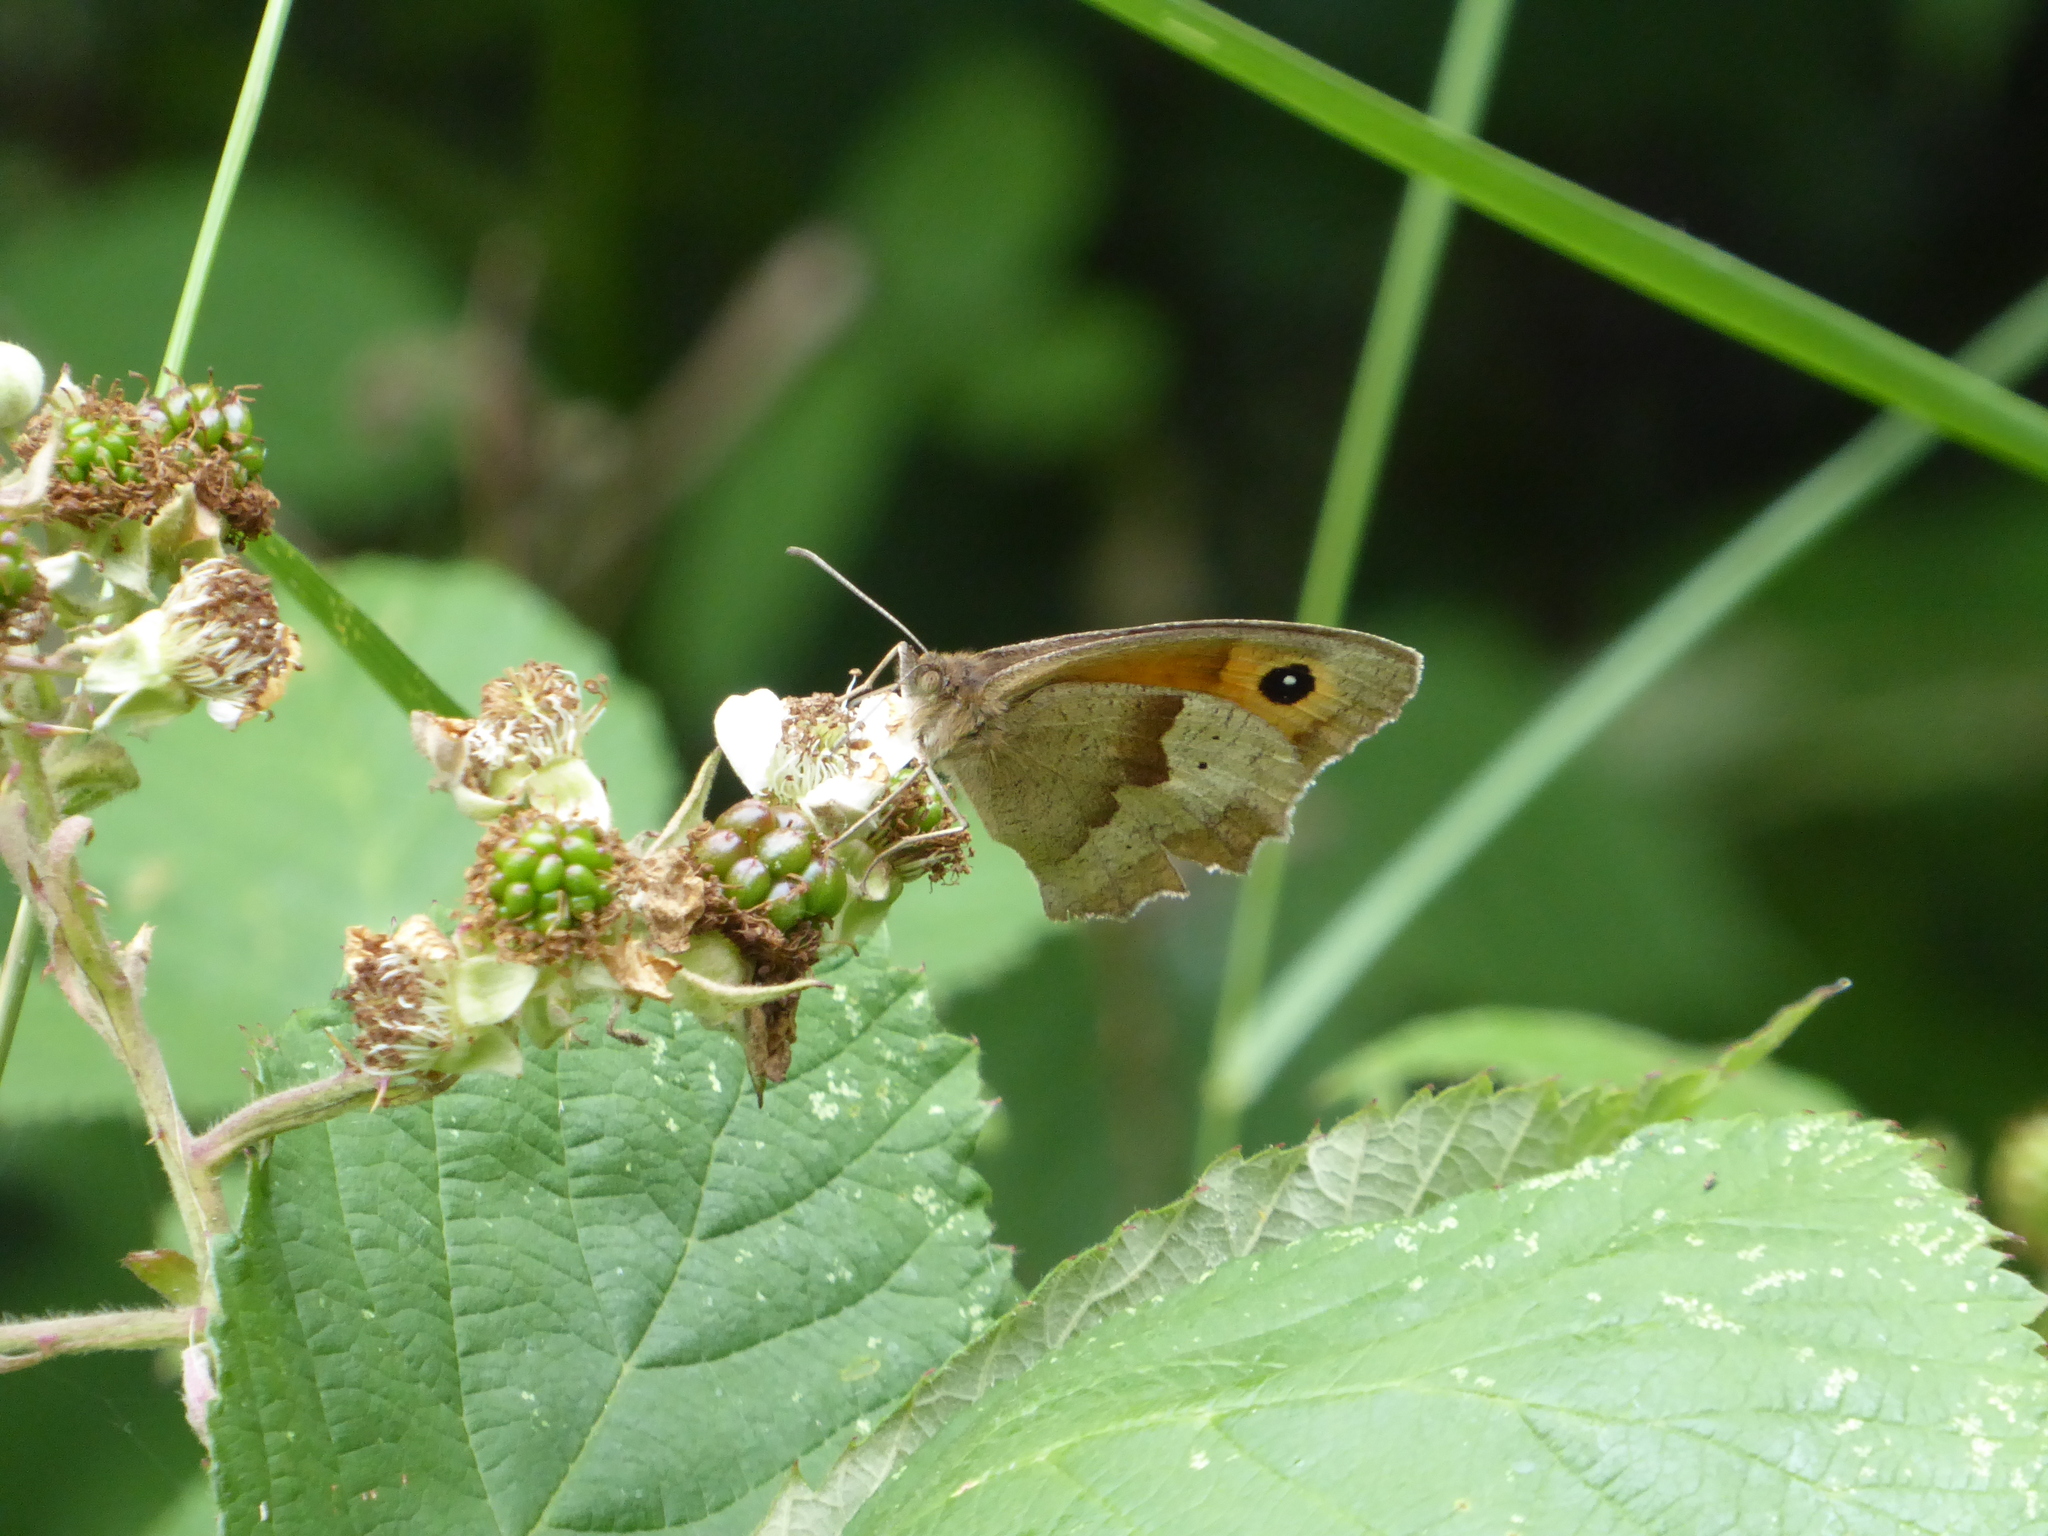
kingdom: Animalia
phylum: Arthropoda
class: Insecta
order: Lepidoptera
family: Nymphalidae
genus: Maniola
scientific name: Maniola jurtina
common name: Meadow brown
